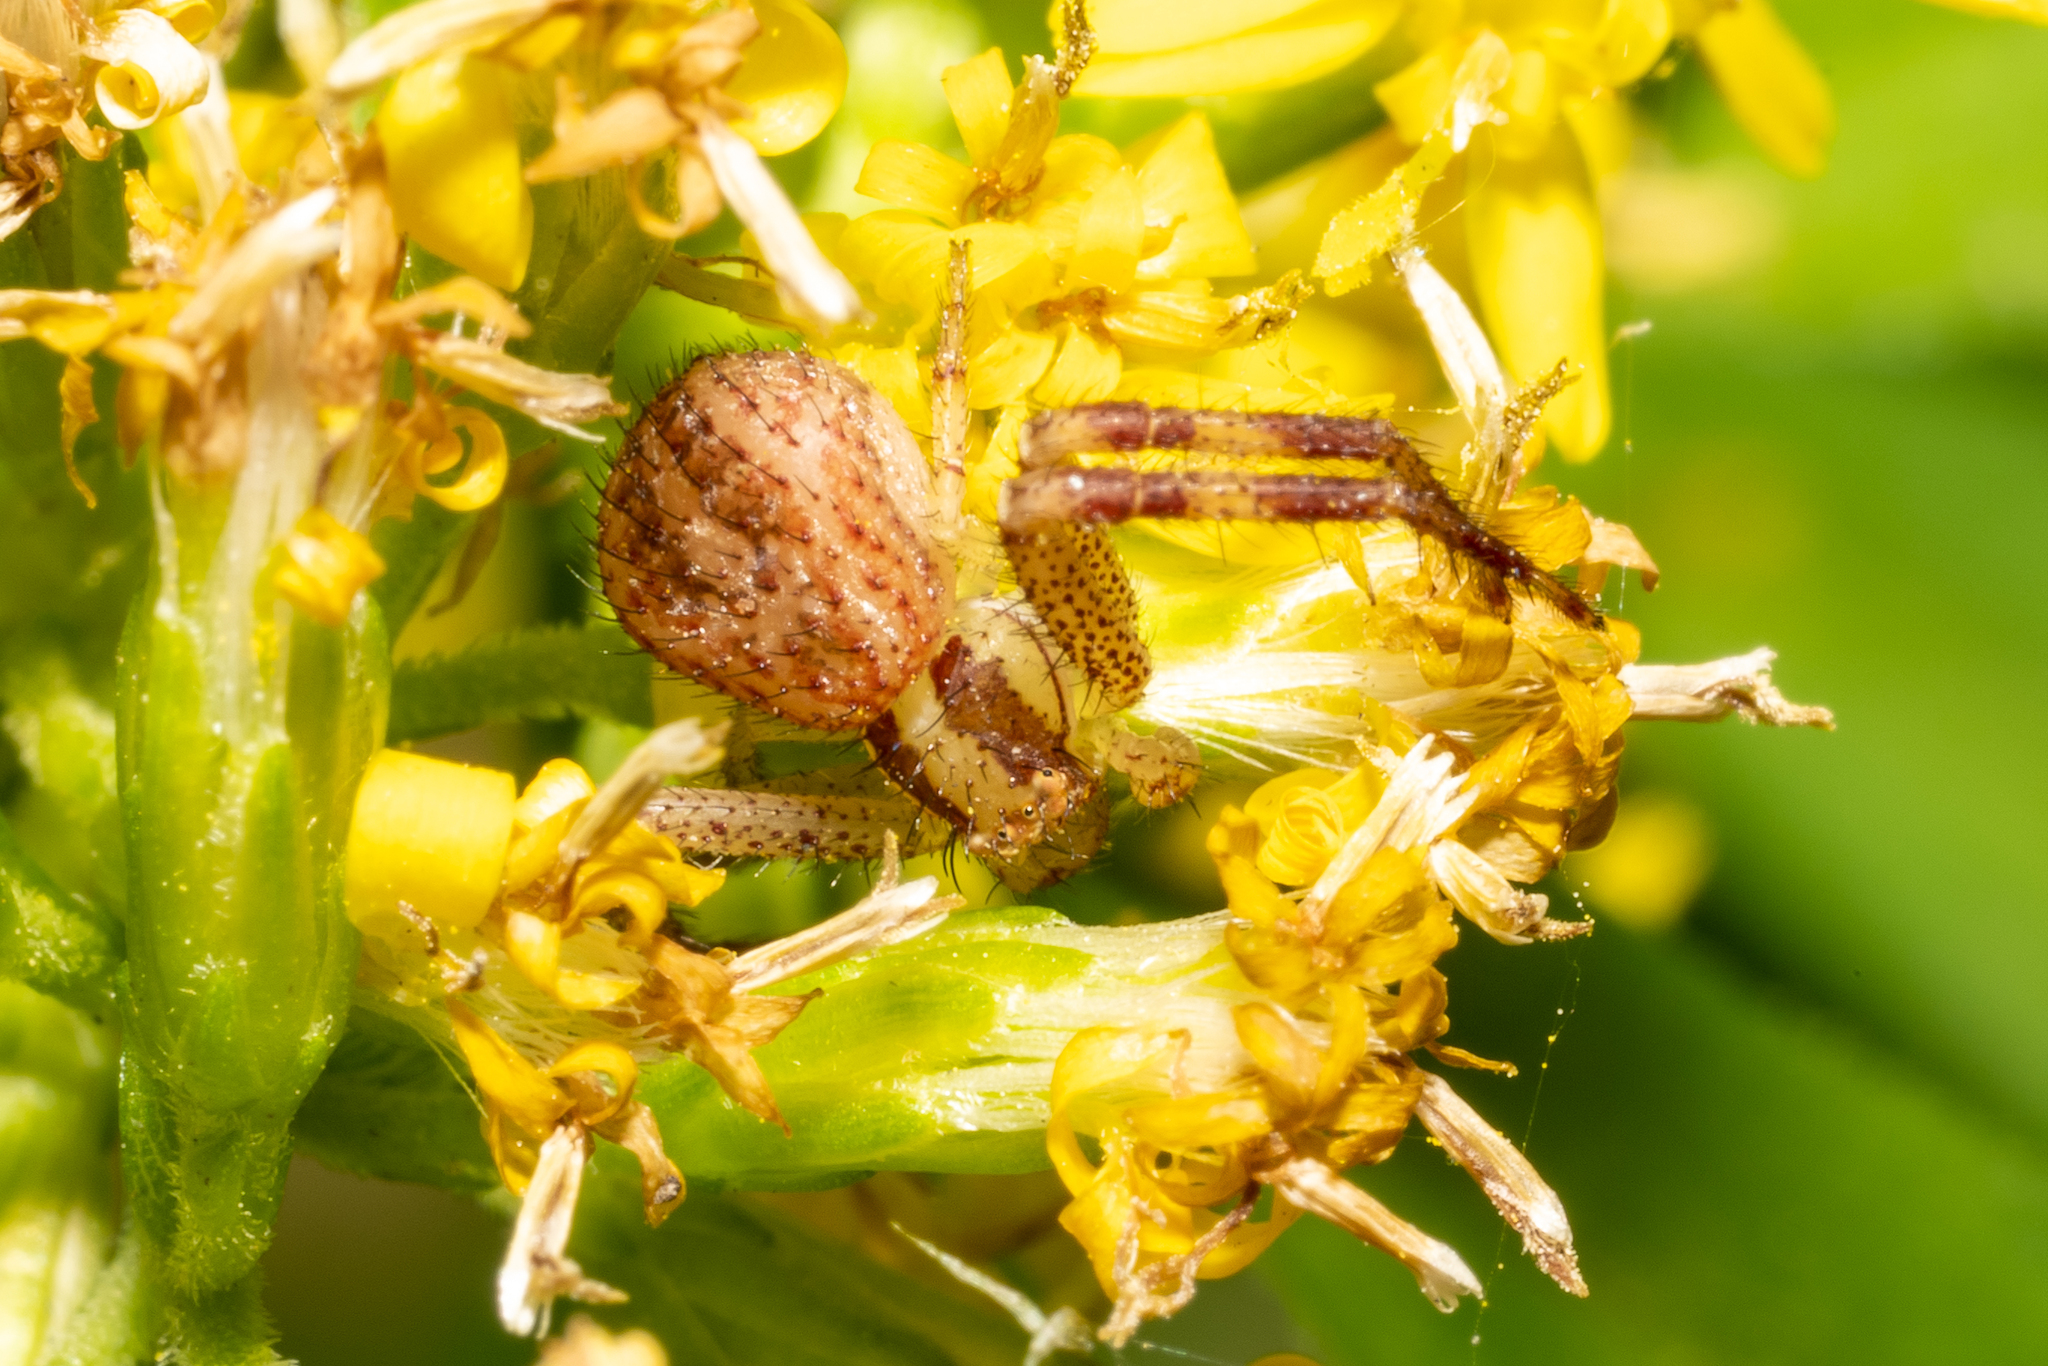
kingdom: Animalia
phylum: Arthropoda
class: Arachnida
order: Araneae
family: Thomisidae
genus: Mecaphesa
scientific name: Mecaphesa asperata
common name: Crab spiders
